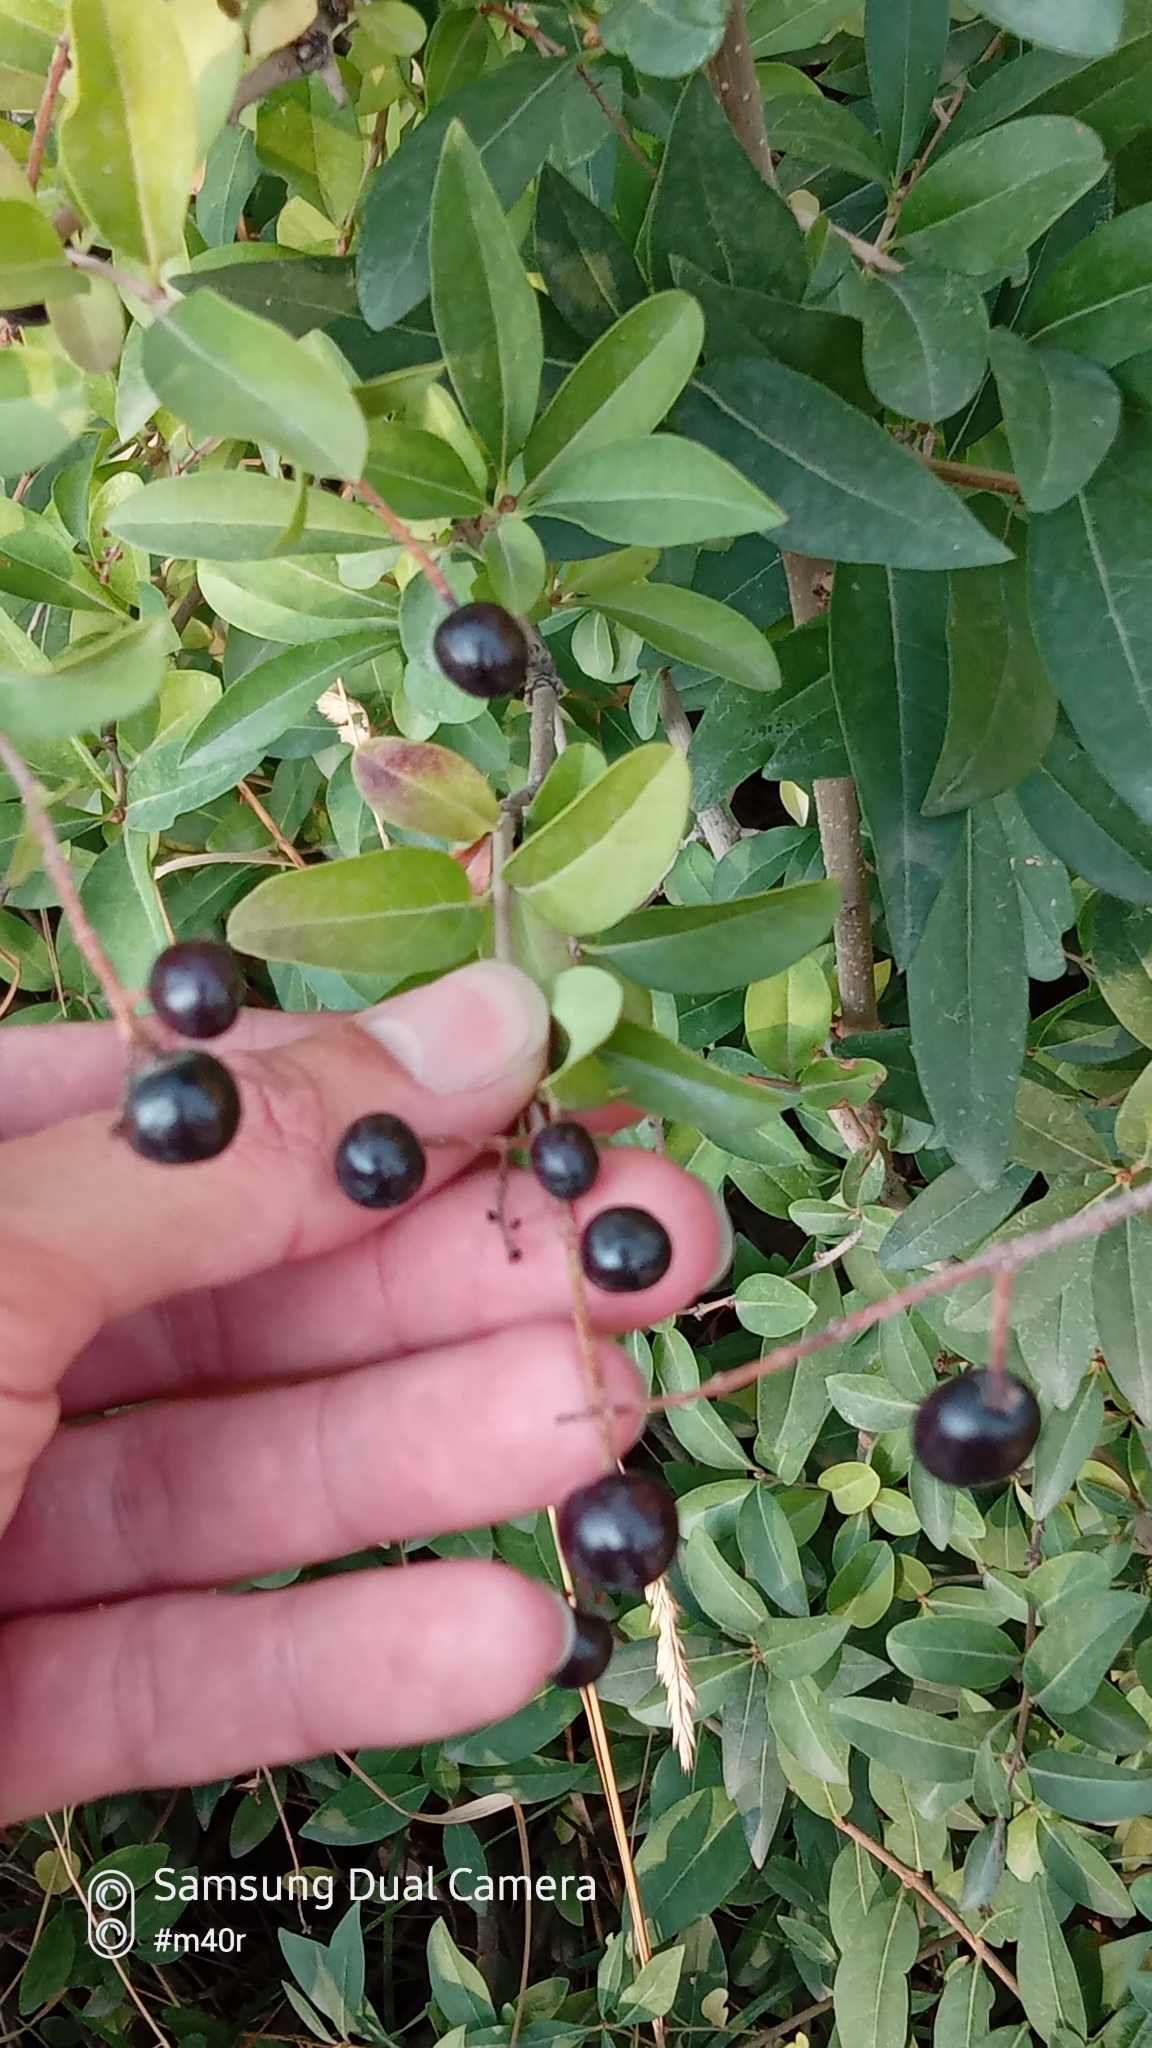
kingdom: Plantae
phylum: Tracheophyta
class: Magnoliopsida
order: Lamiales
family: Oleaceae
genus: Ligustrum
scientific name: Ligustrum vulgare
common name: Wild privet
